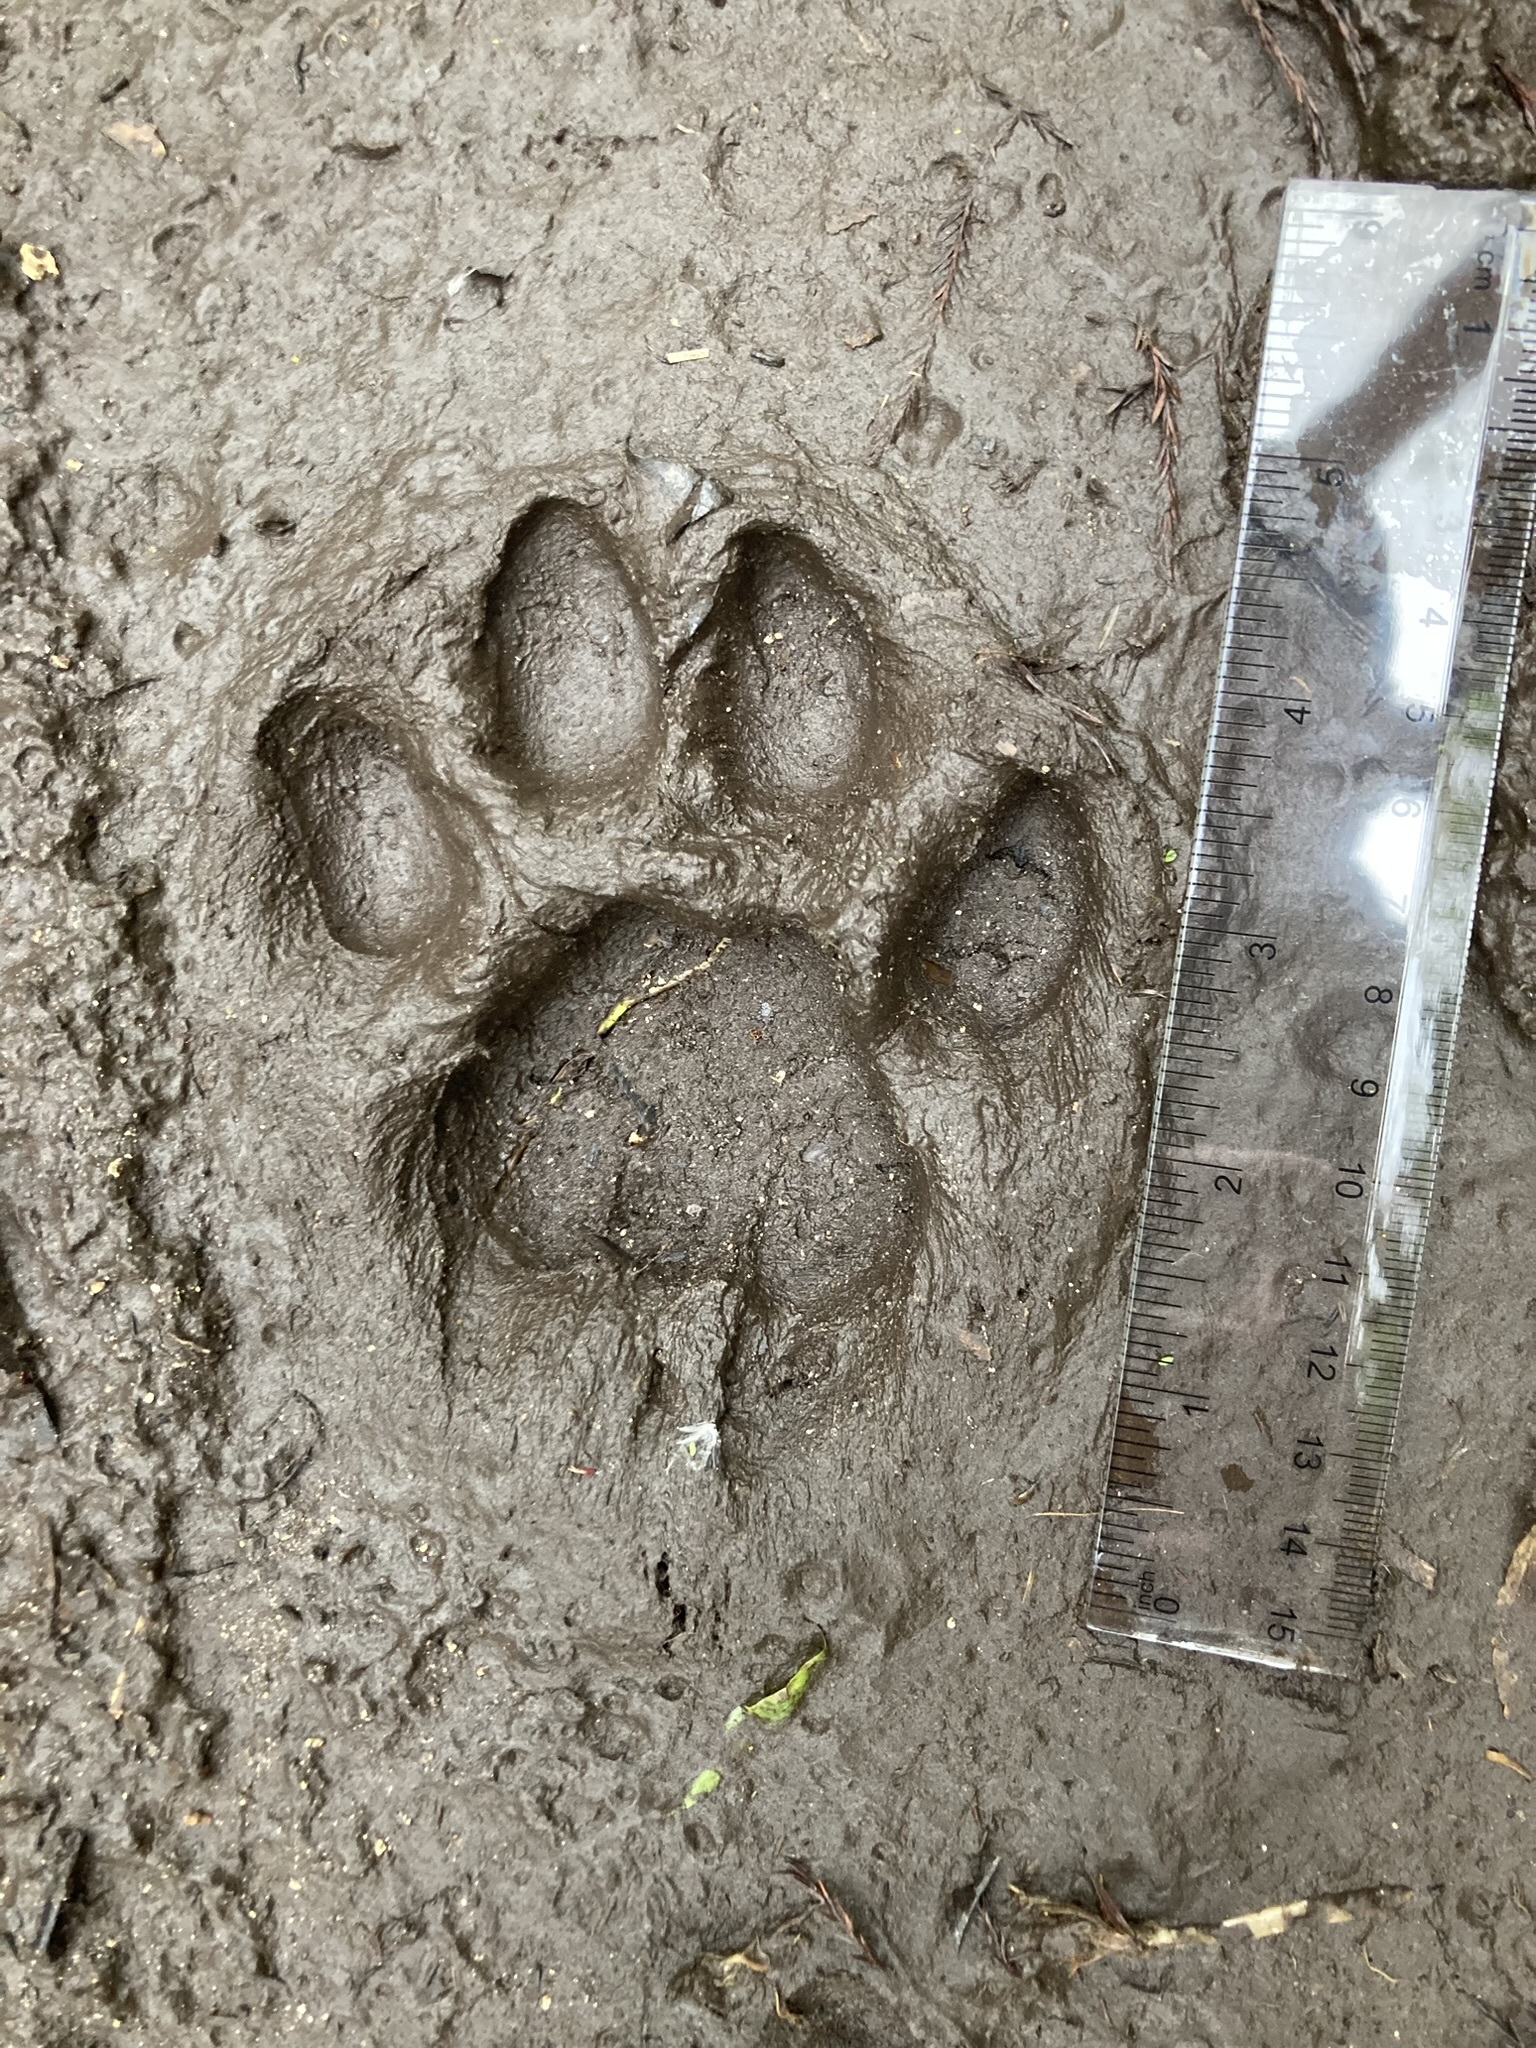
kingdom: Animalia
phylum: Chordata
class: Mammalia
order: Carnivora
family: Felidae
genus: Puma
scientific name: Puma concolor
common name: Puma
